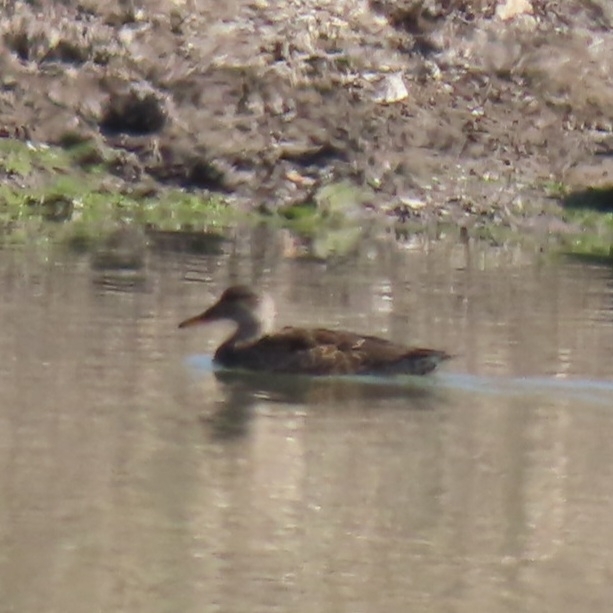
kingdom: Animalia
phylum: Chordata
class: Aves
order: Anseriformes
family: Anatidae
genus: Mareca
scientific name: Mareca strepera
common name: Gadwall
